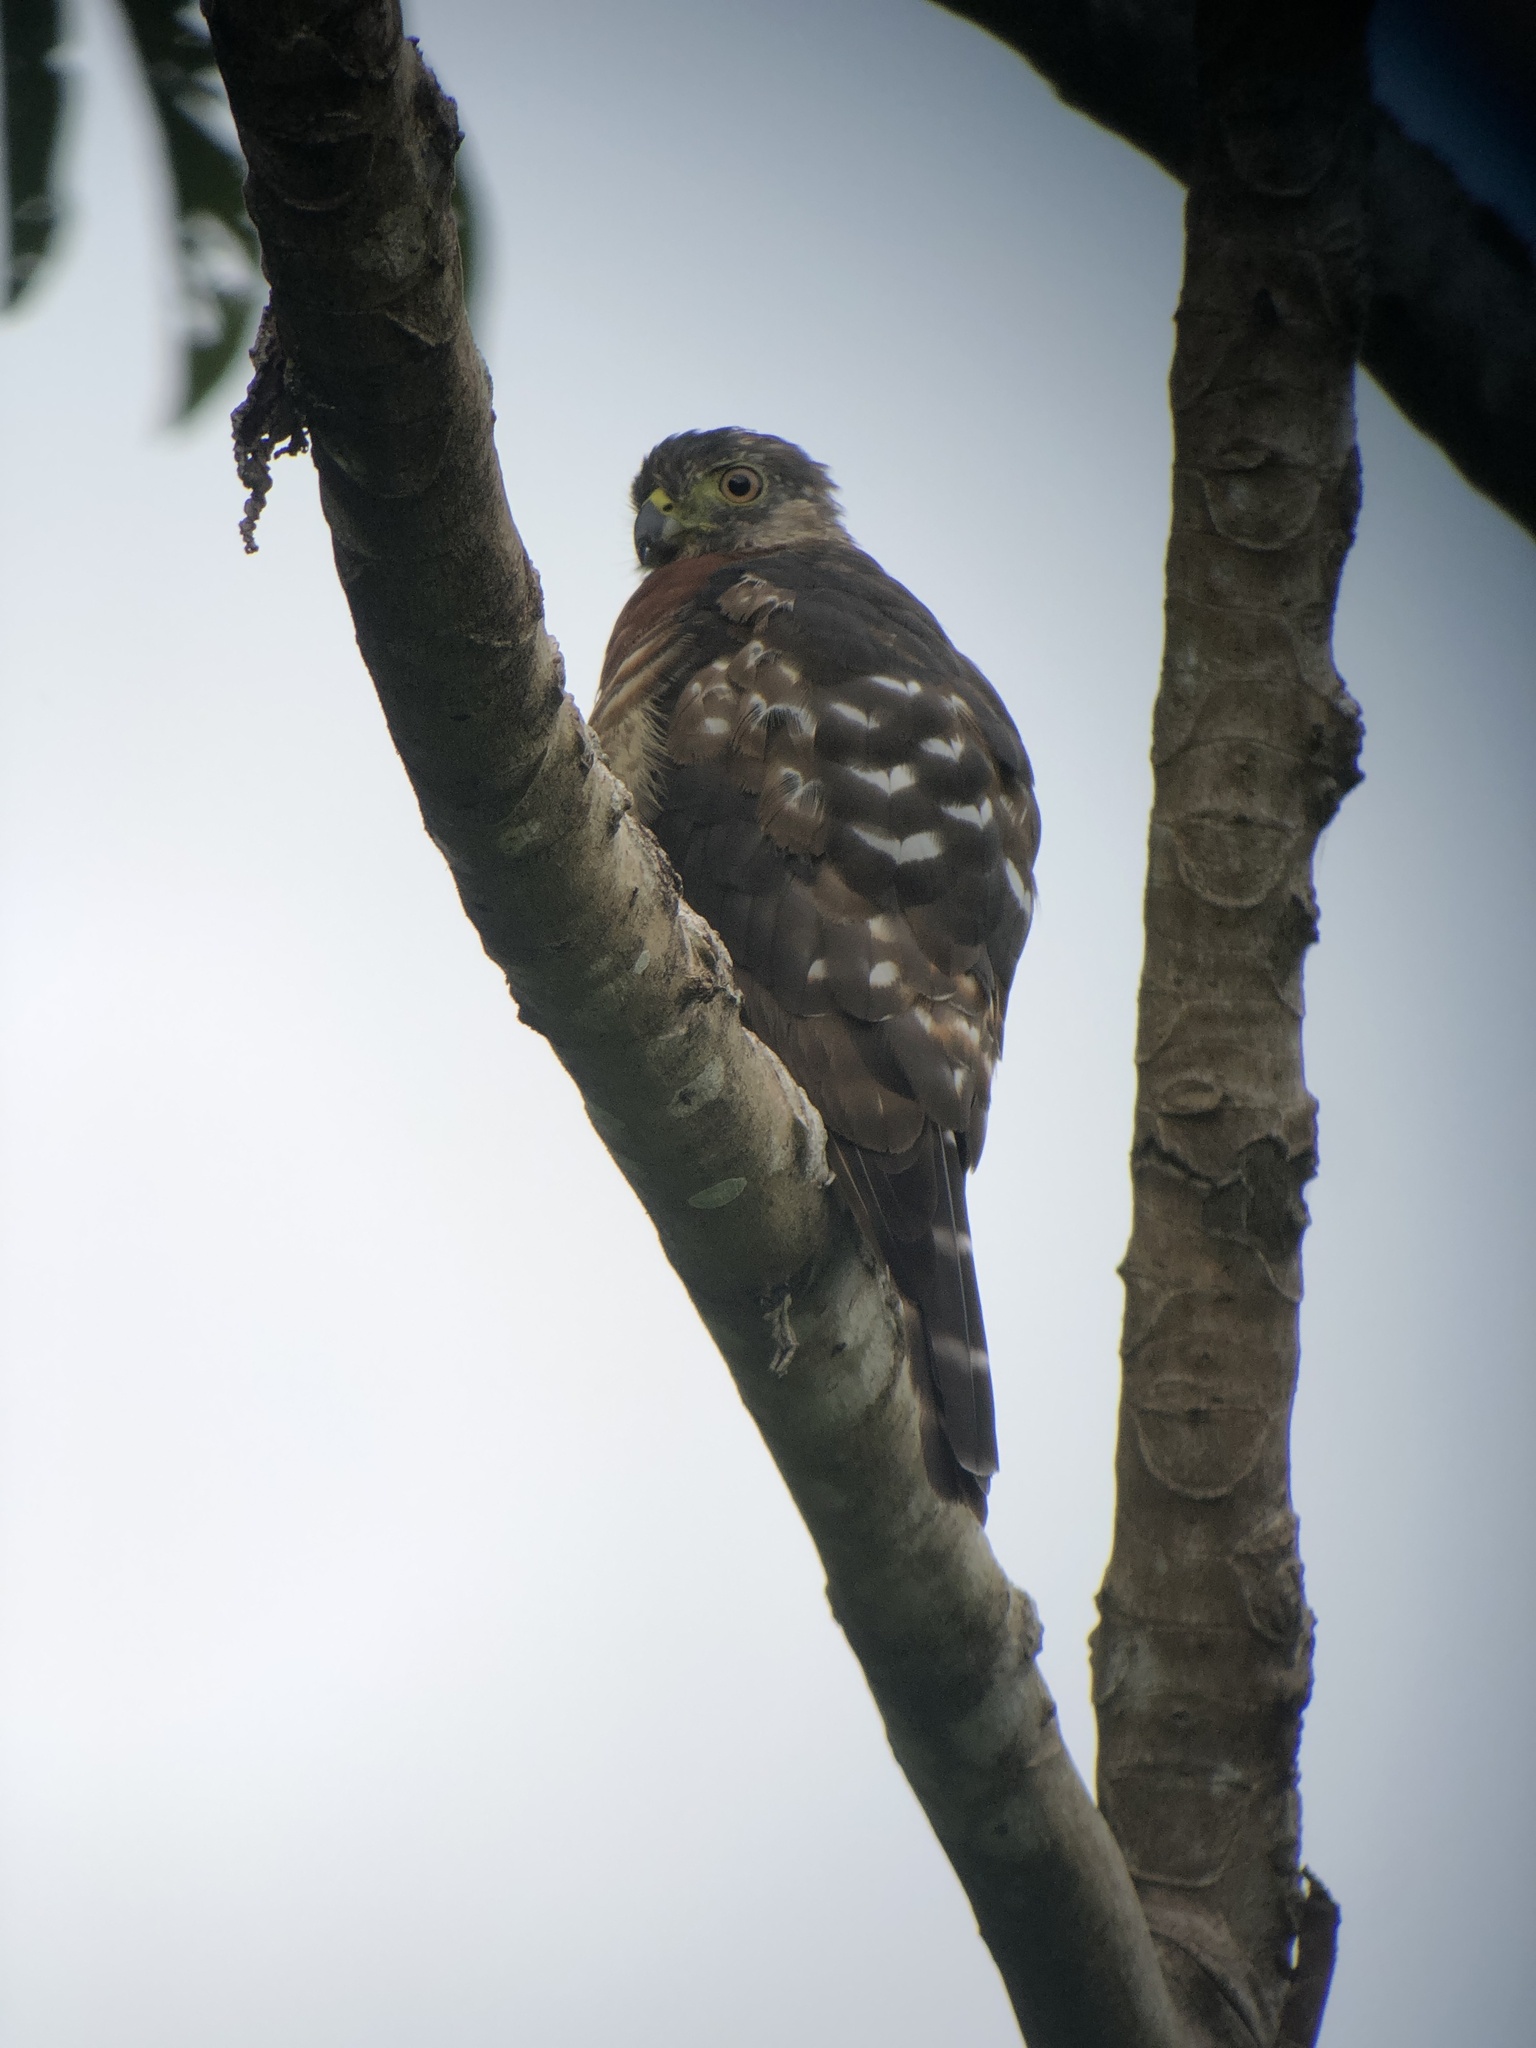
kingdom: Animalia
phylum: Chordata
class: Aves
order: Accipitriformes
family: Accipitridae
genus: Harpagus
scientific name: Harpagus bidentatus
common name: Double-toothed kite
